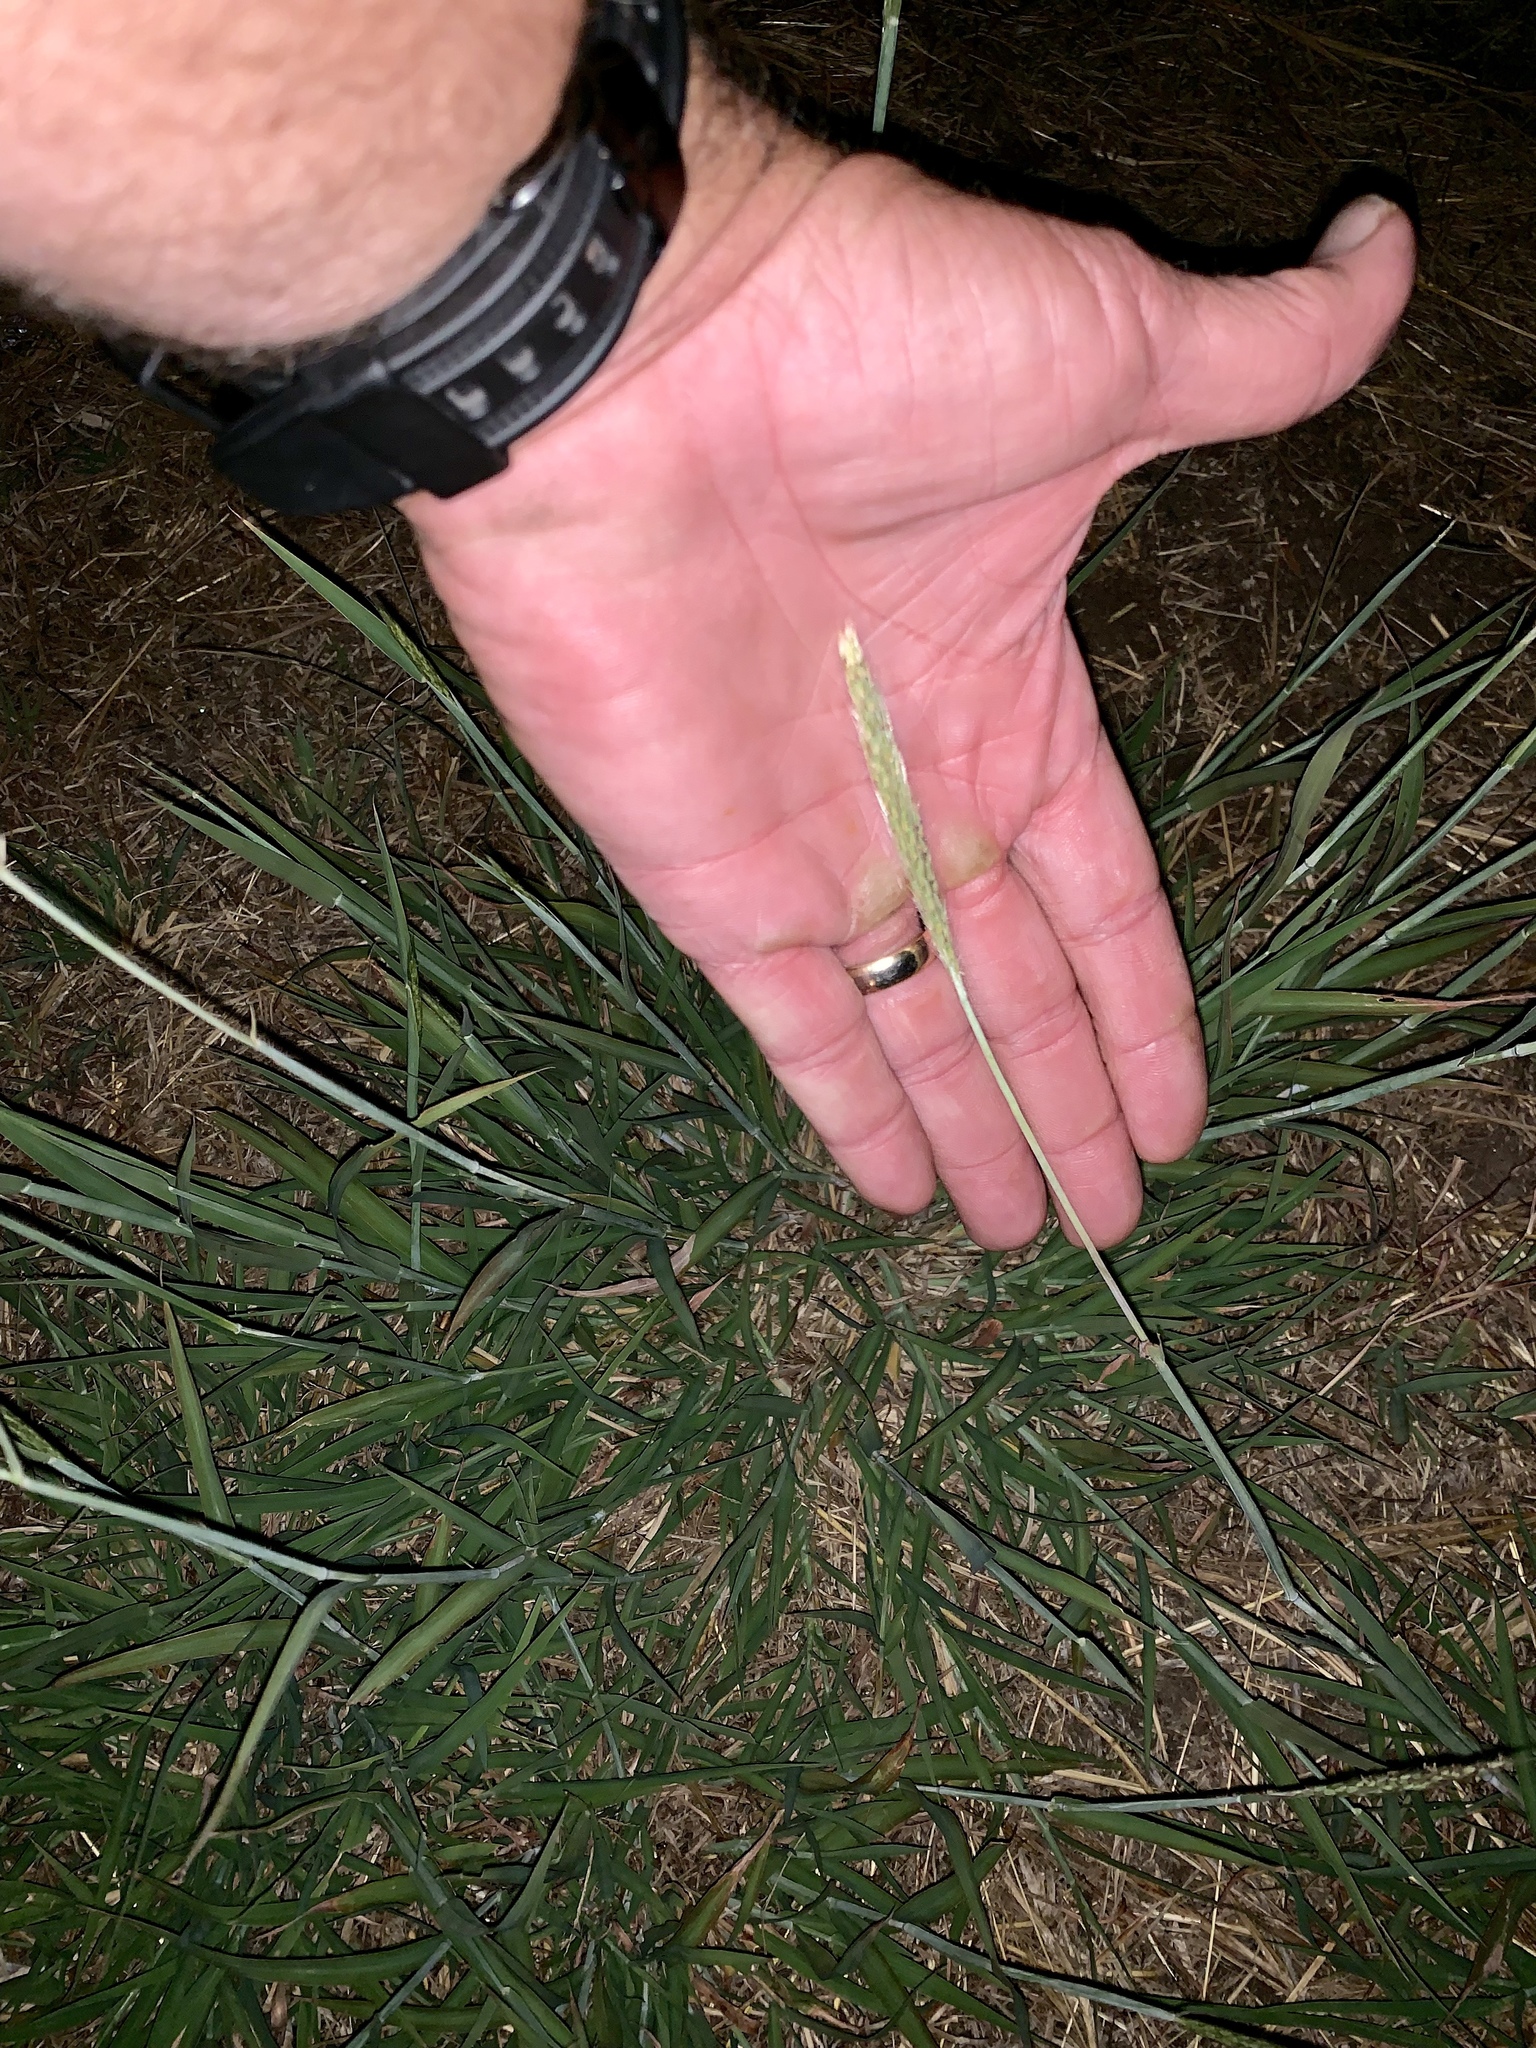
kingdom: Plantae
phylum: Tracheophyta
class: Liliopsida
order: Poales
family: Poaceae
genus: Bothriochloa
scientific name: Bothriochloa torreyana
